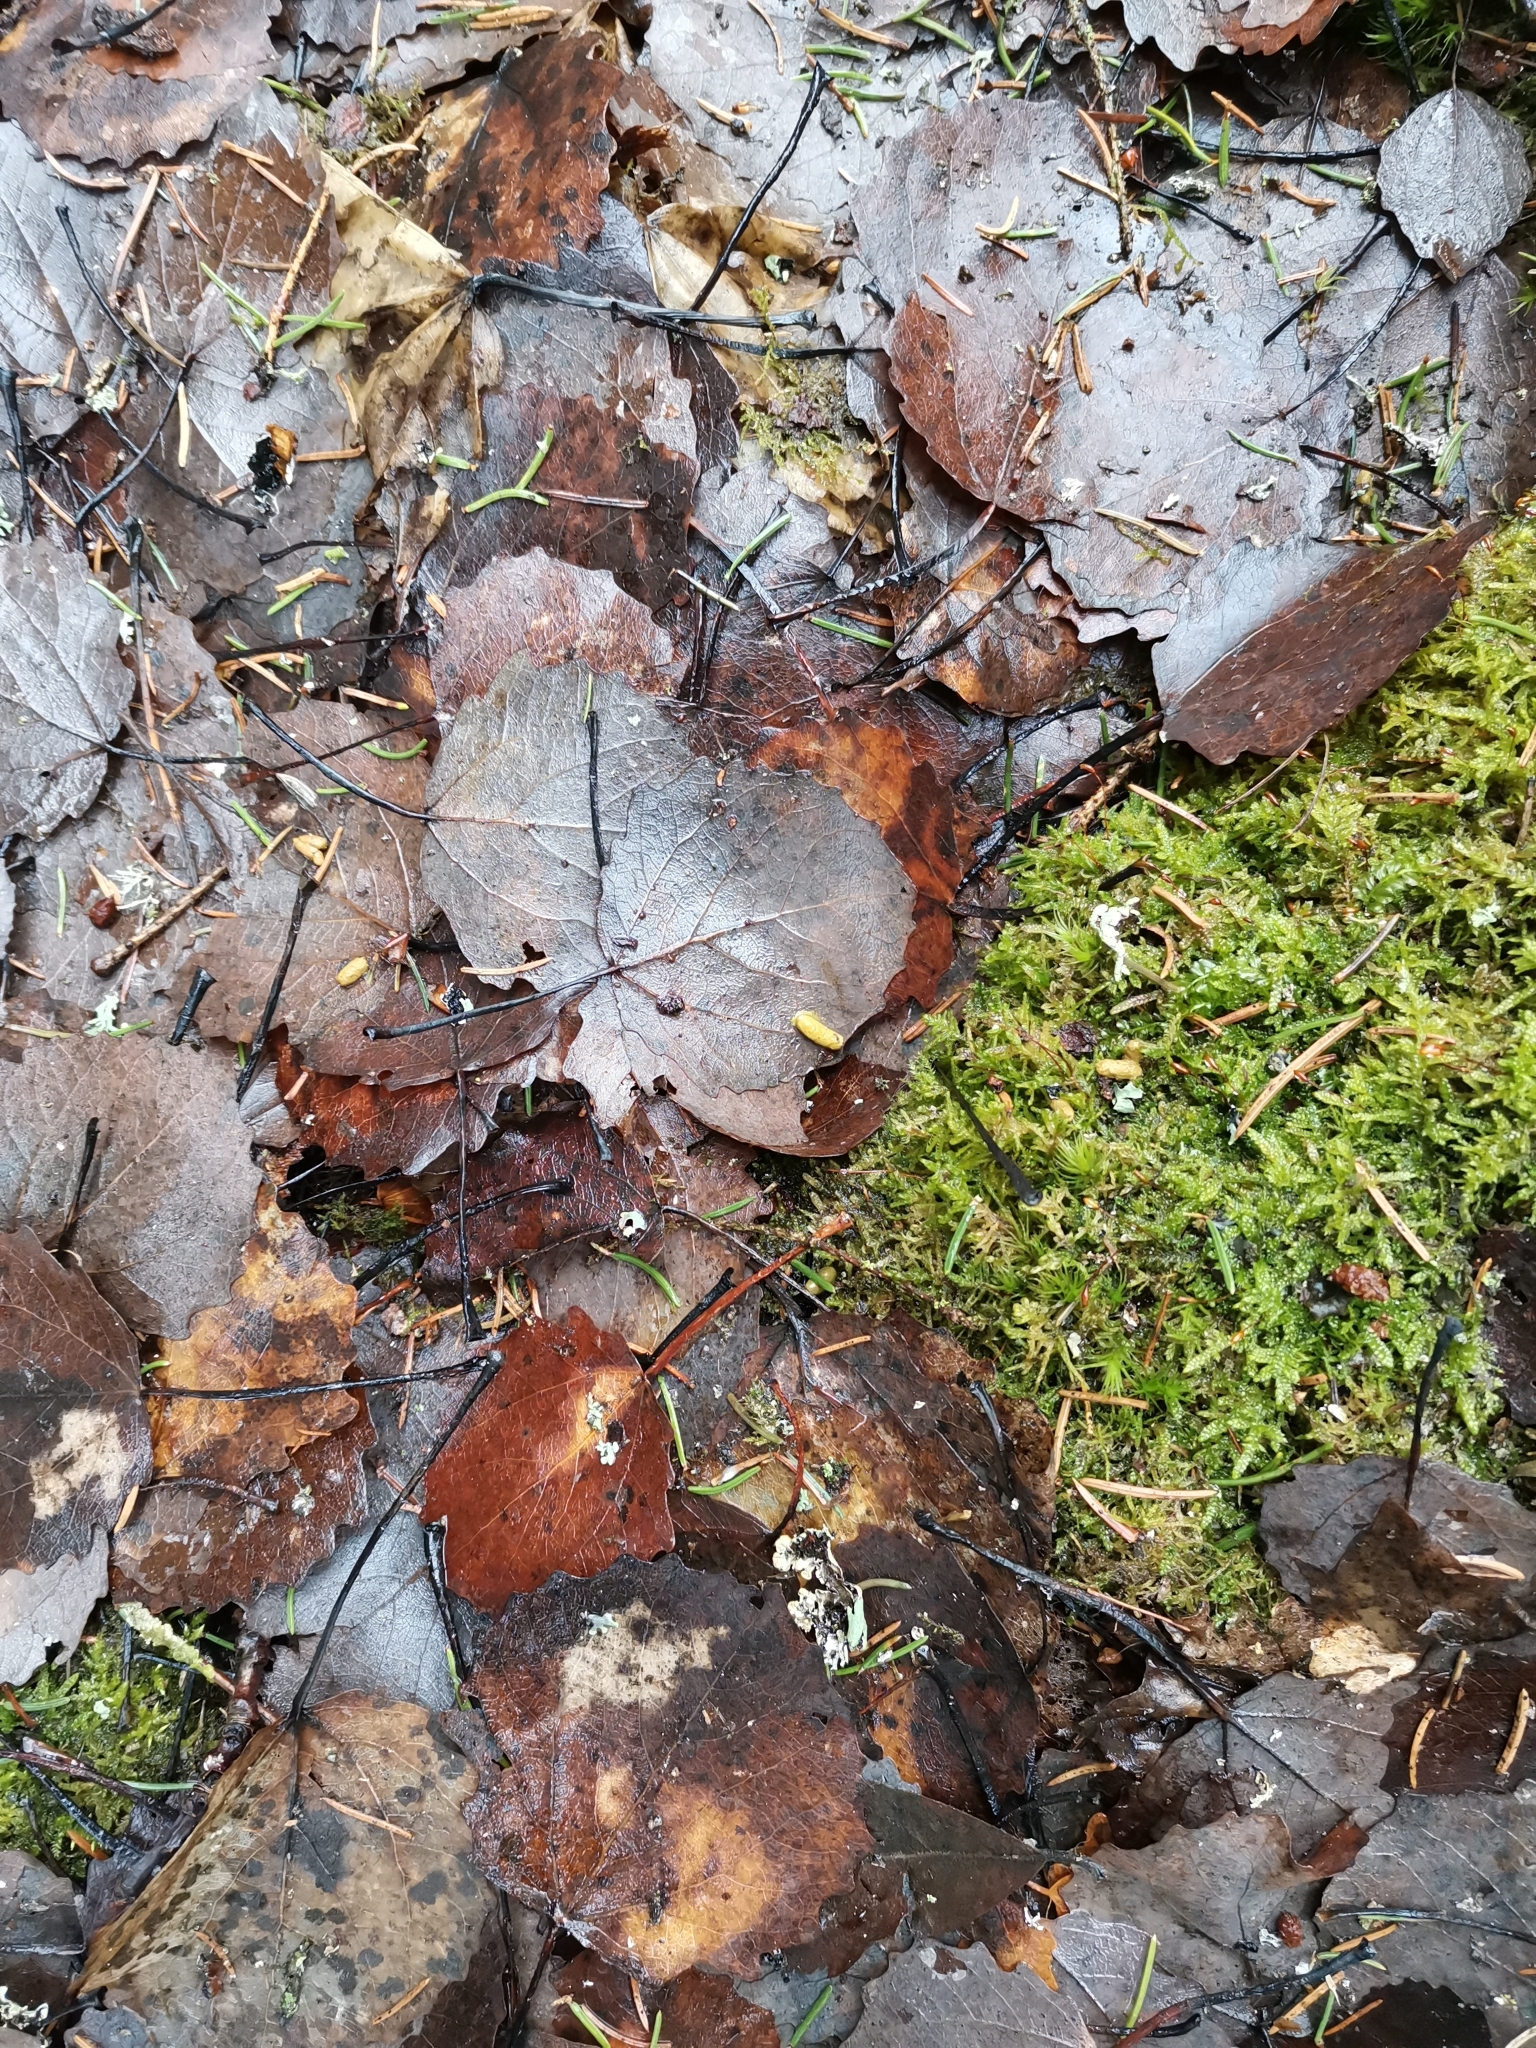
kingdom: Animalia
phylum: Chordata
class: Mammalia
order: Rodentia
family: Sciuridae
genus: Pteromys
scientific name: Pteromys volans
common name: Siberian flying squirrel
